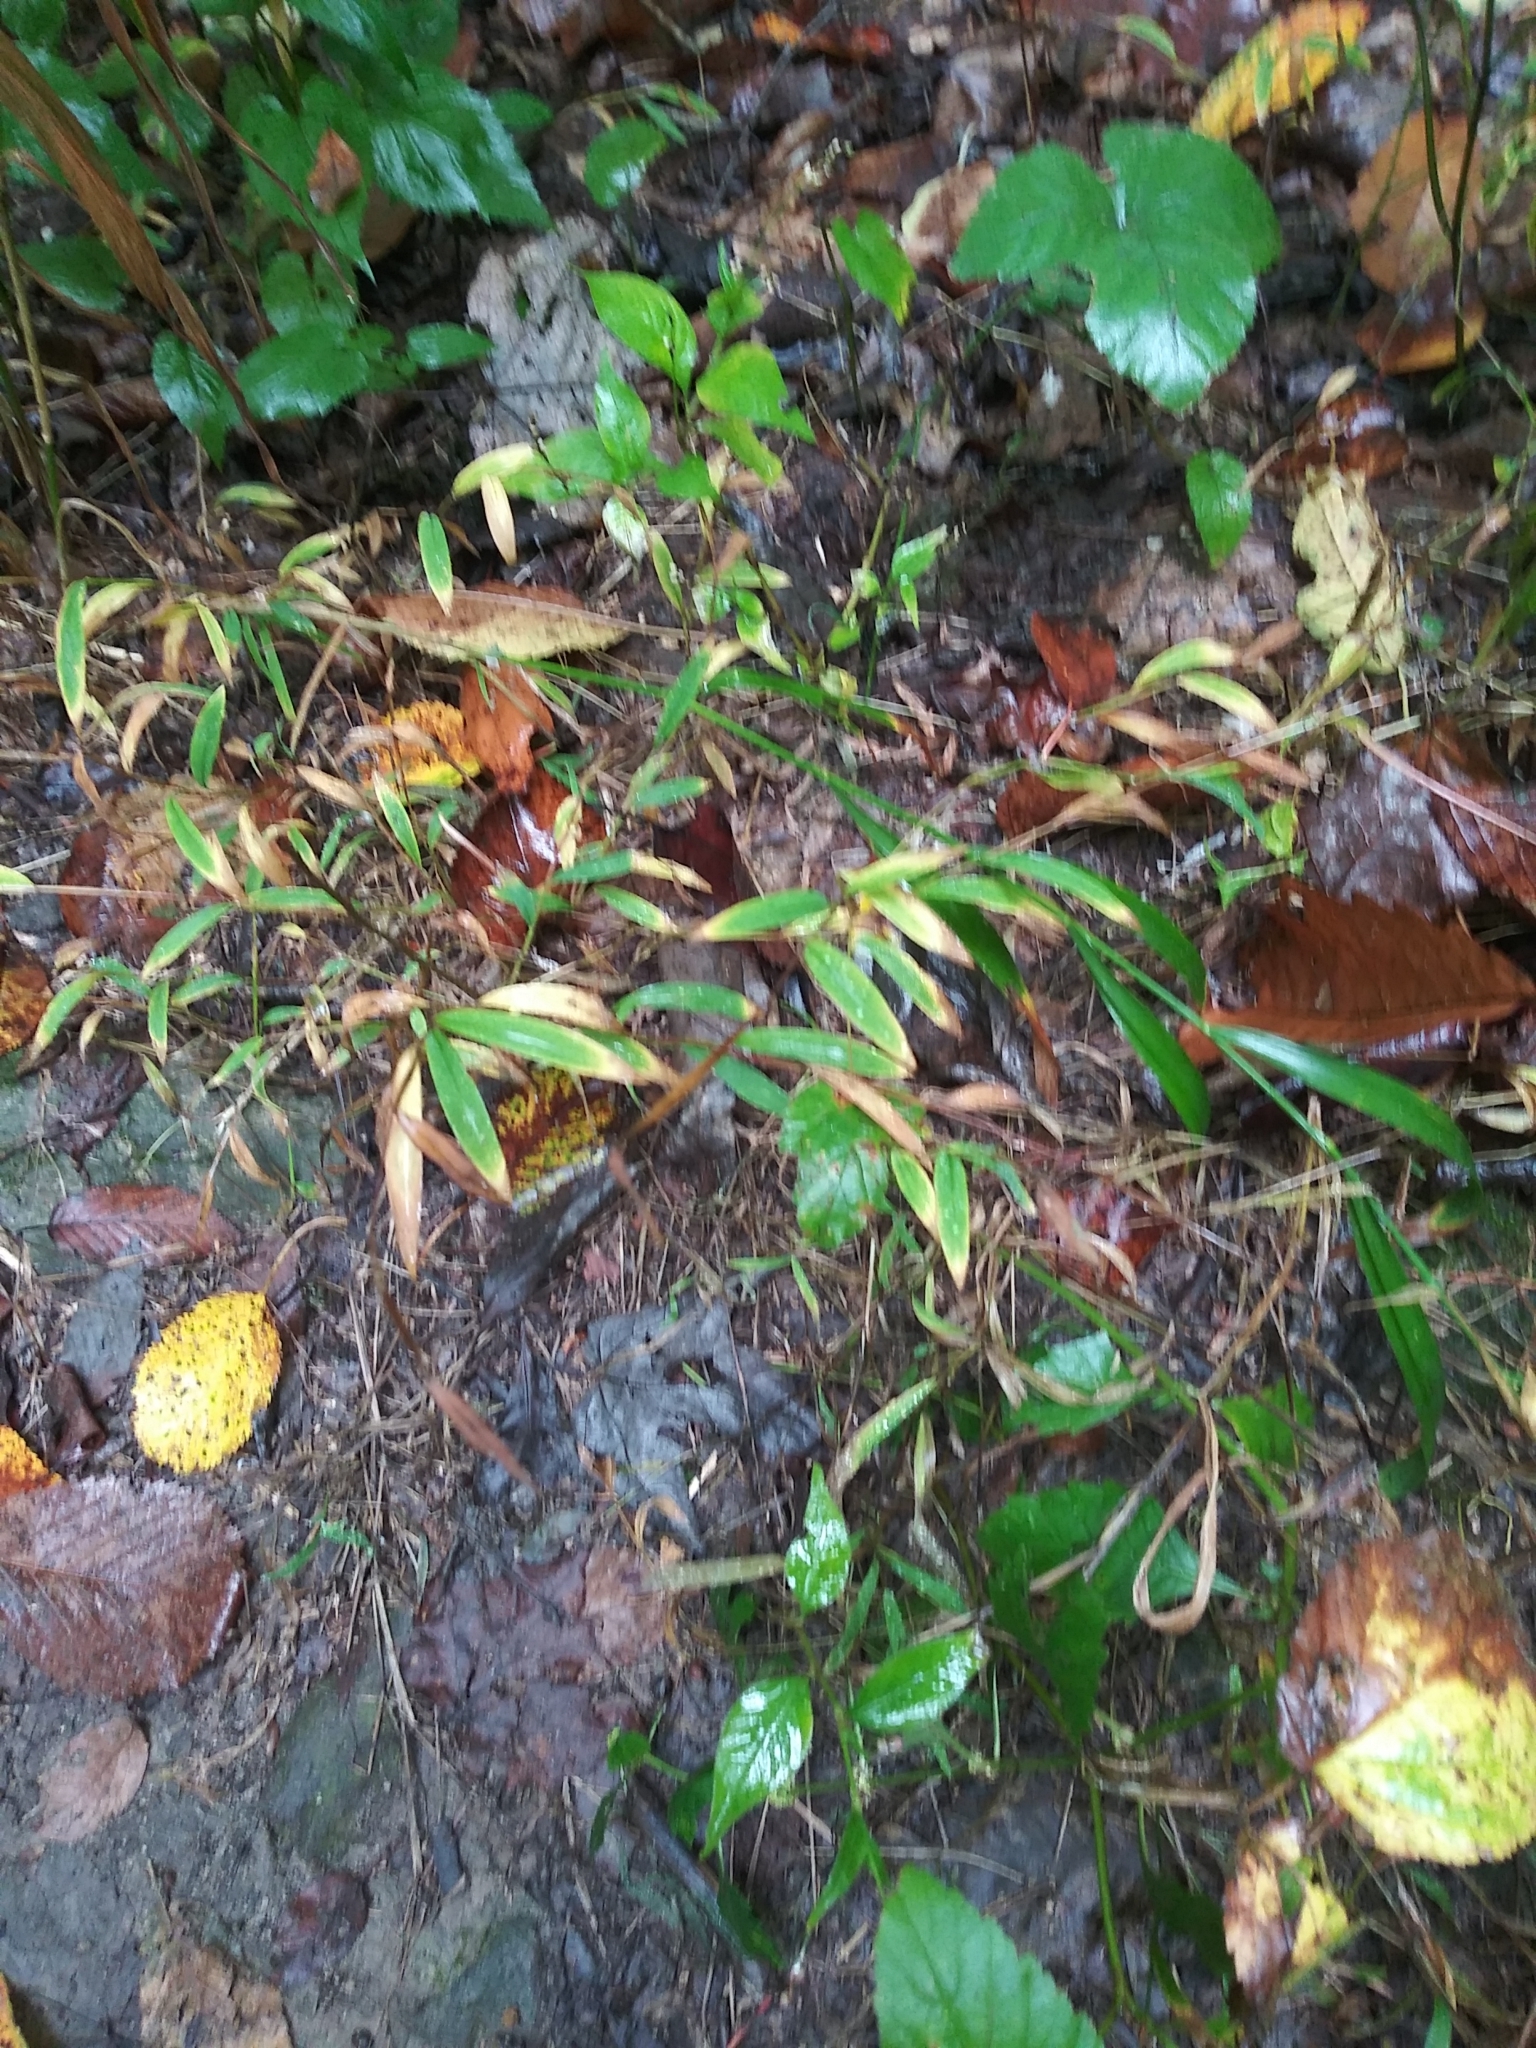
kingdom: Plantae
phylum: Tracheophyta
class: Liliopsida
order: Poales
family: Poaceae
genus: Microstegium
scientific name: Microstegium vimineum
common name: Japanese stiltgrass
